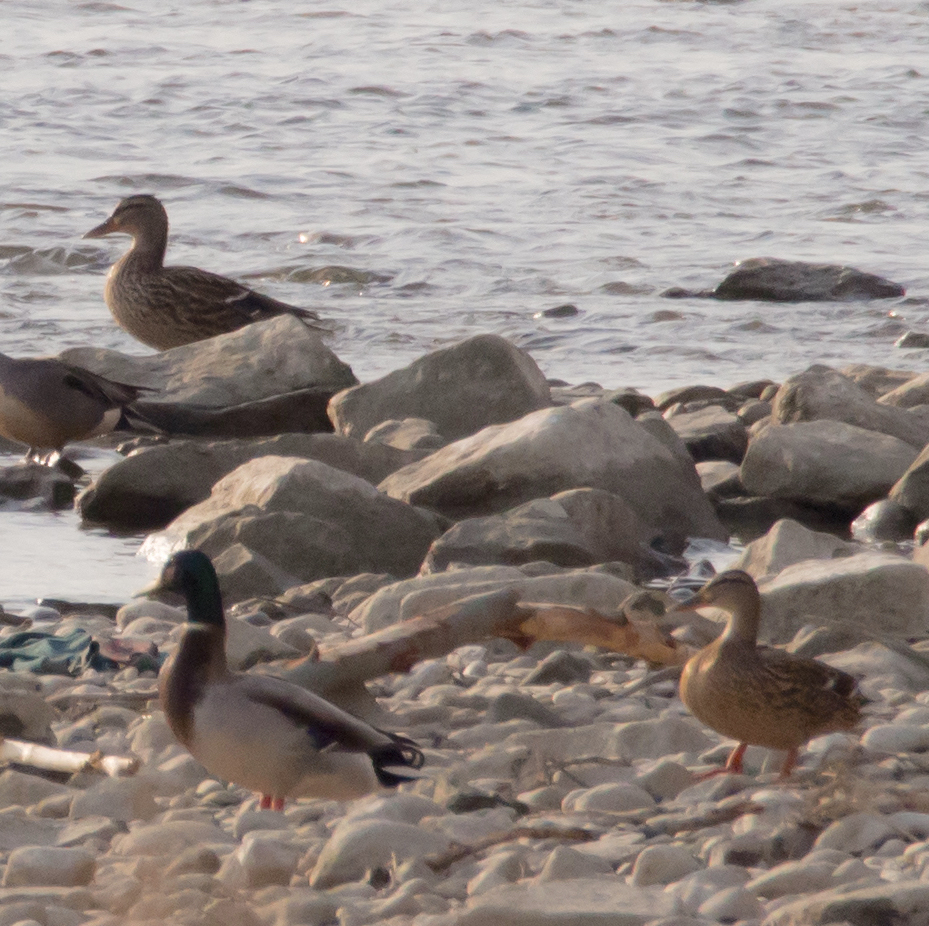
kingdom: Animalia
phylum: Chordata
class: Aves
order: Anseriformes
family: Anatidae
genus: Anas
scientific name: Anas platyrhynchos
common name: Mallard
